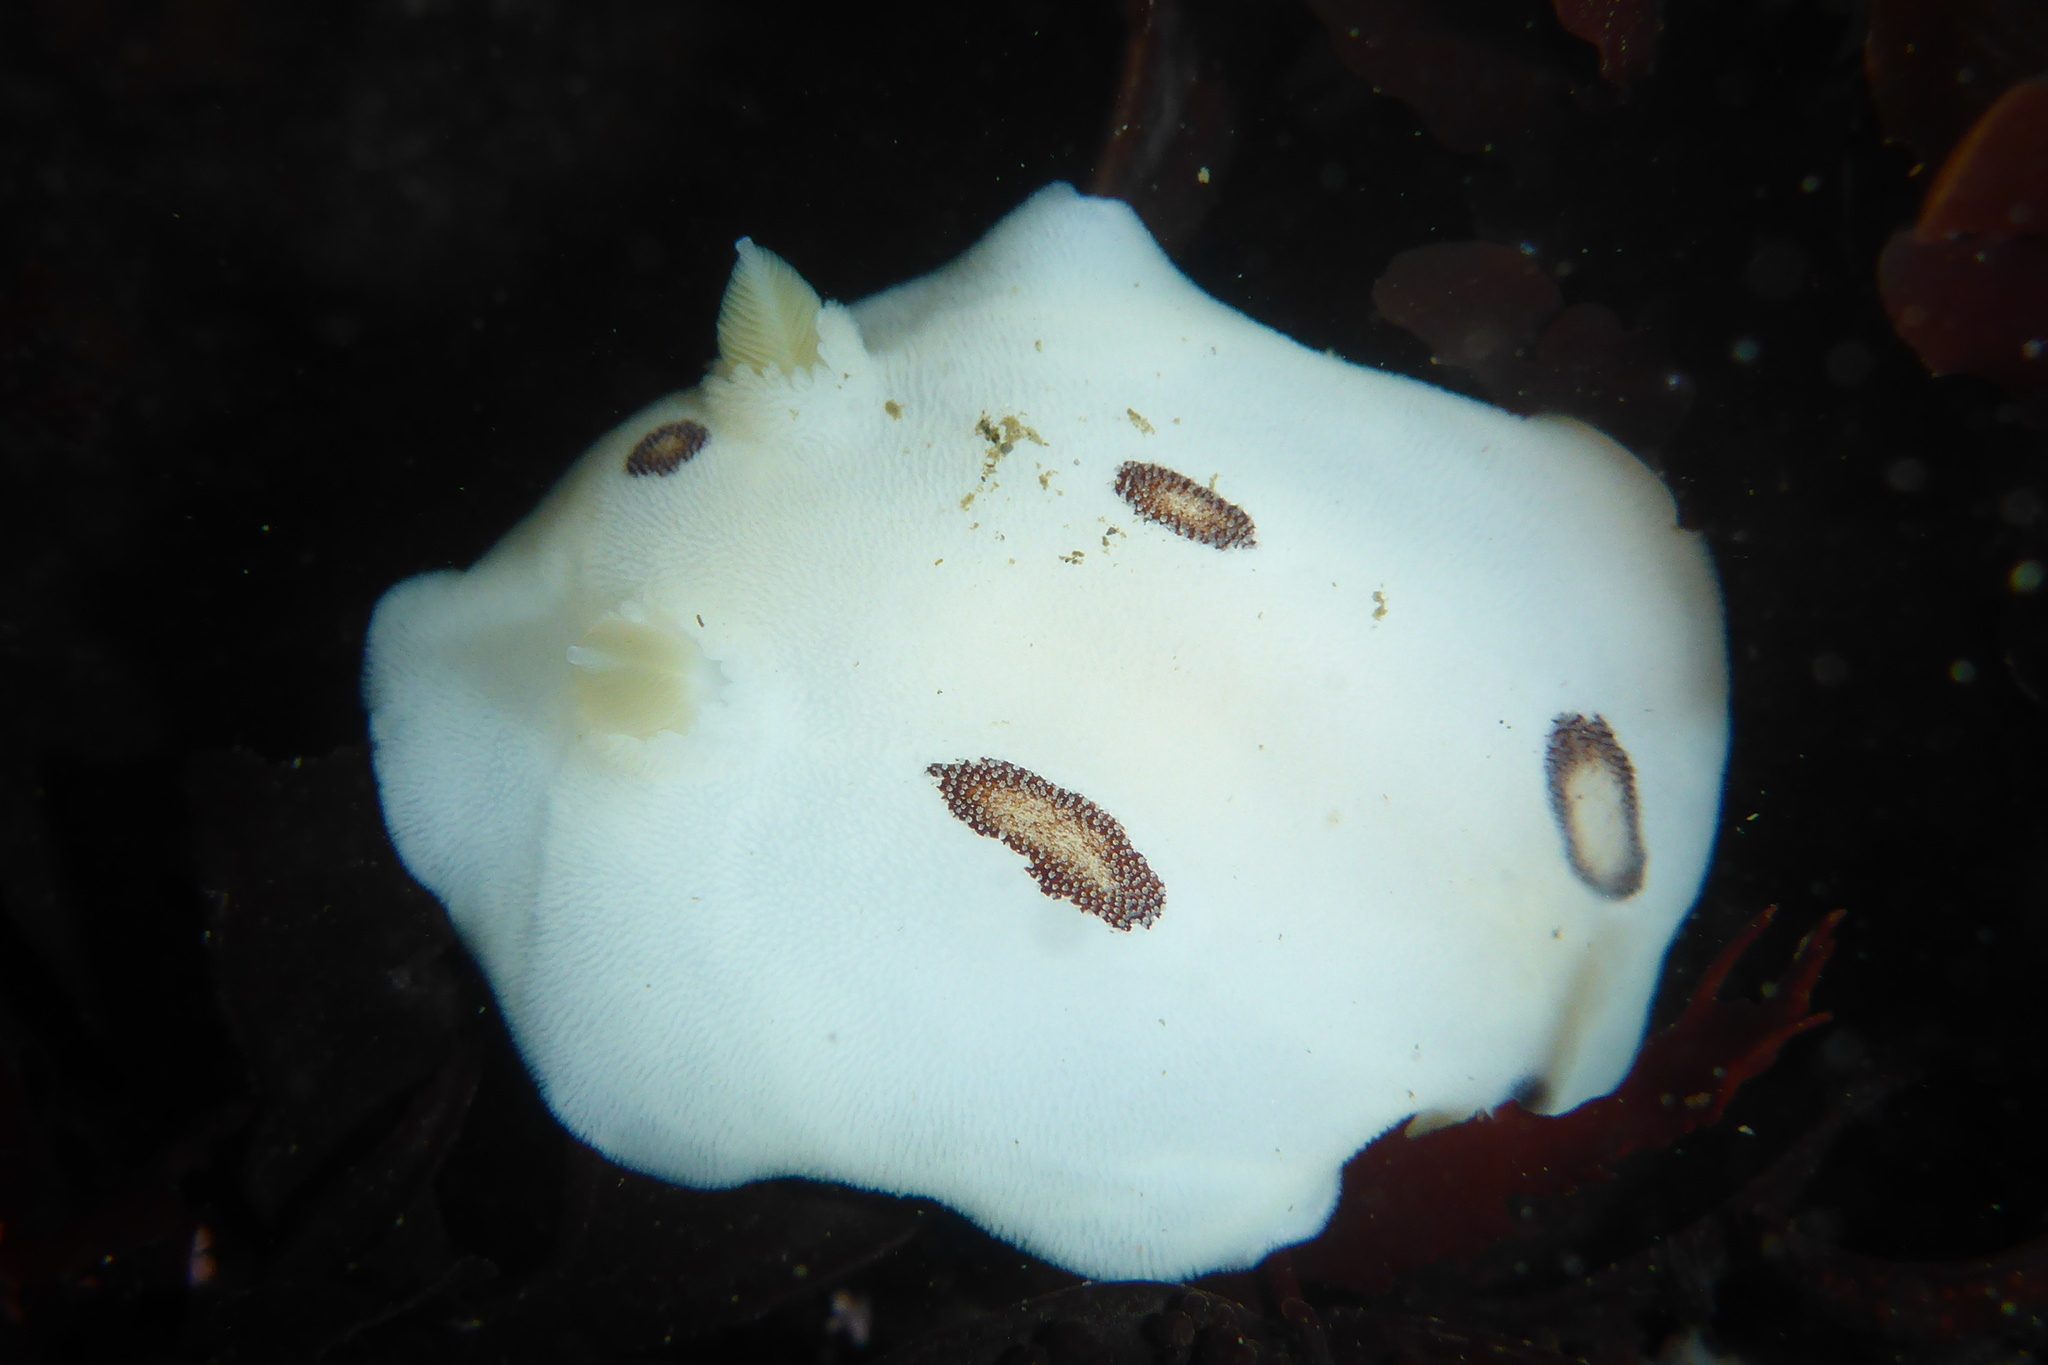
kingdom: Animalia
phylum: Mollusca
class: Gastropoda
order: Nudibranchia
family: Discodorididae
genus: Diaulula
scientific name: Diaulula sandiegensis
